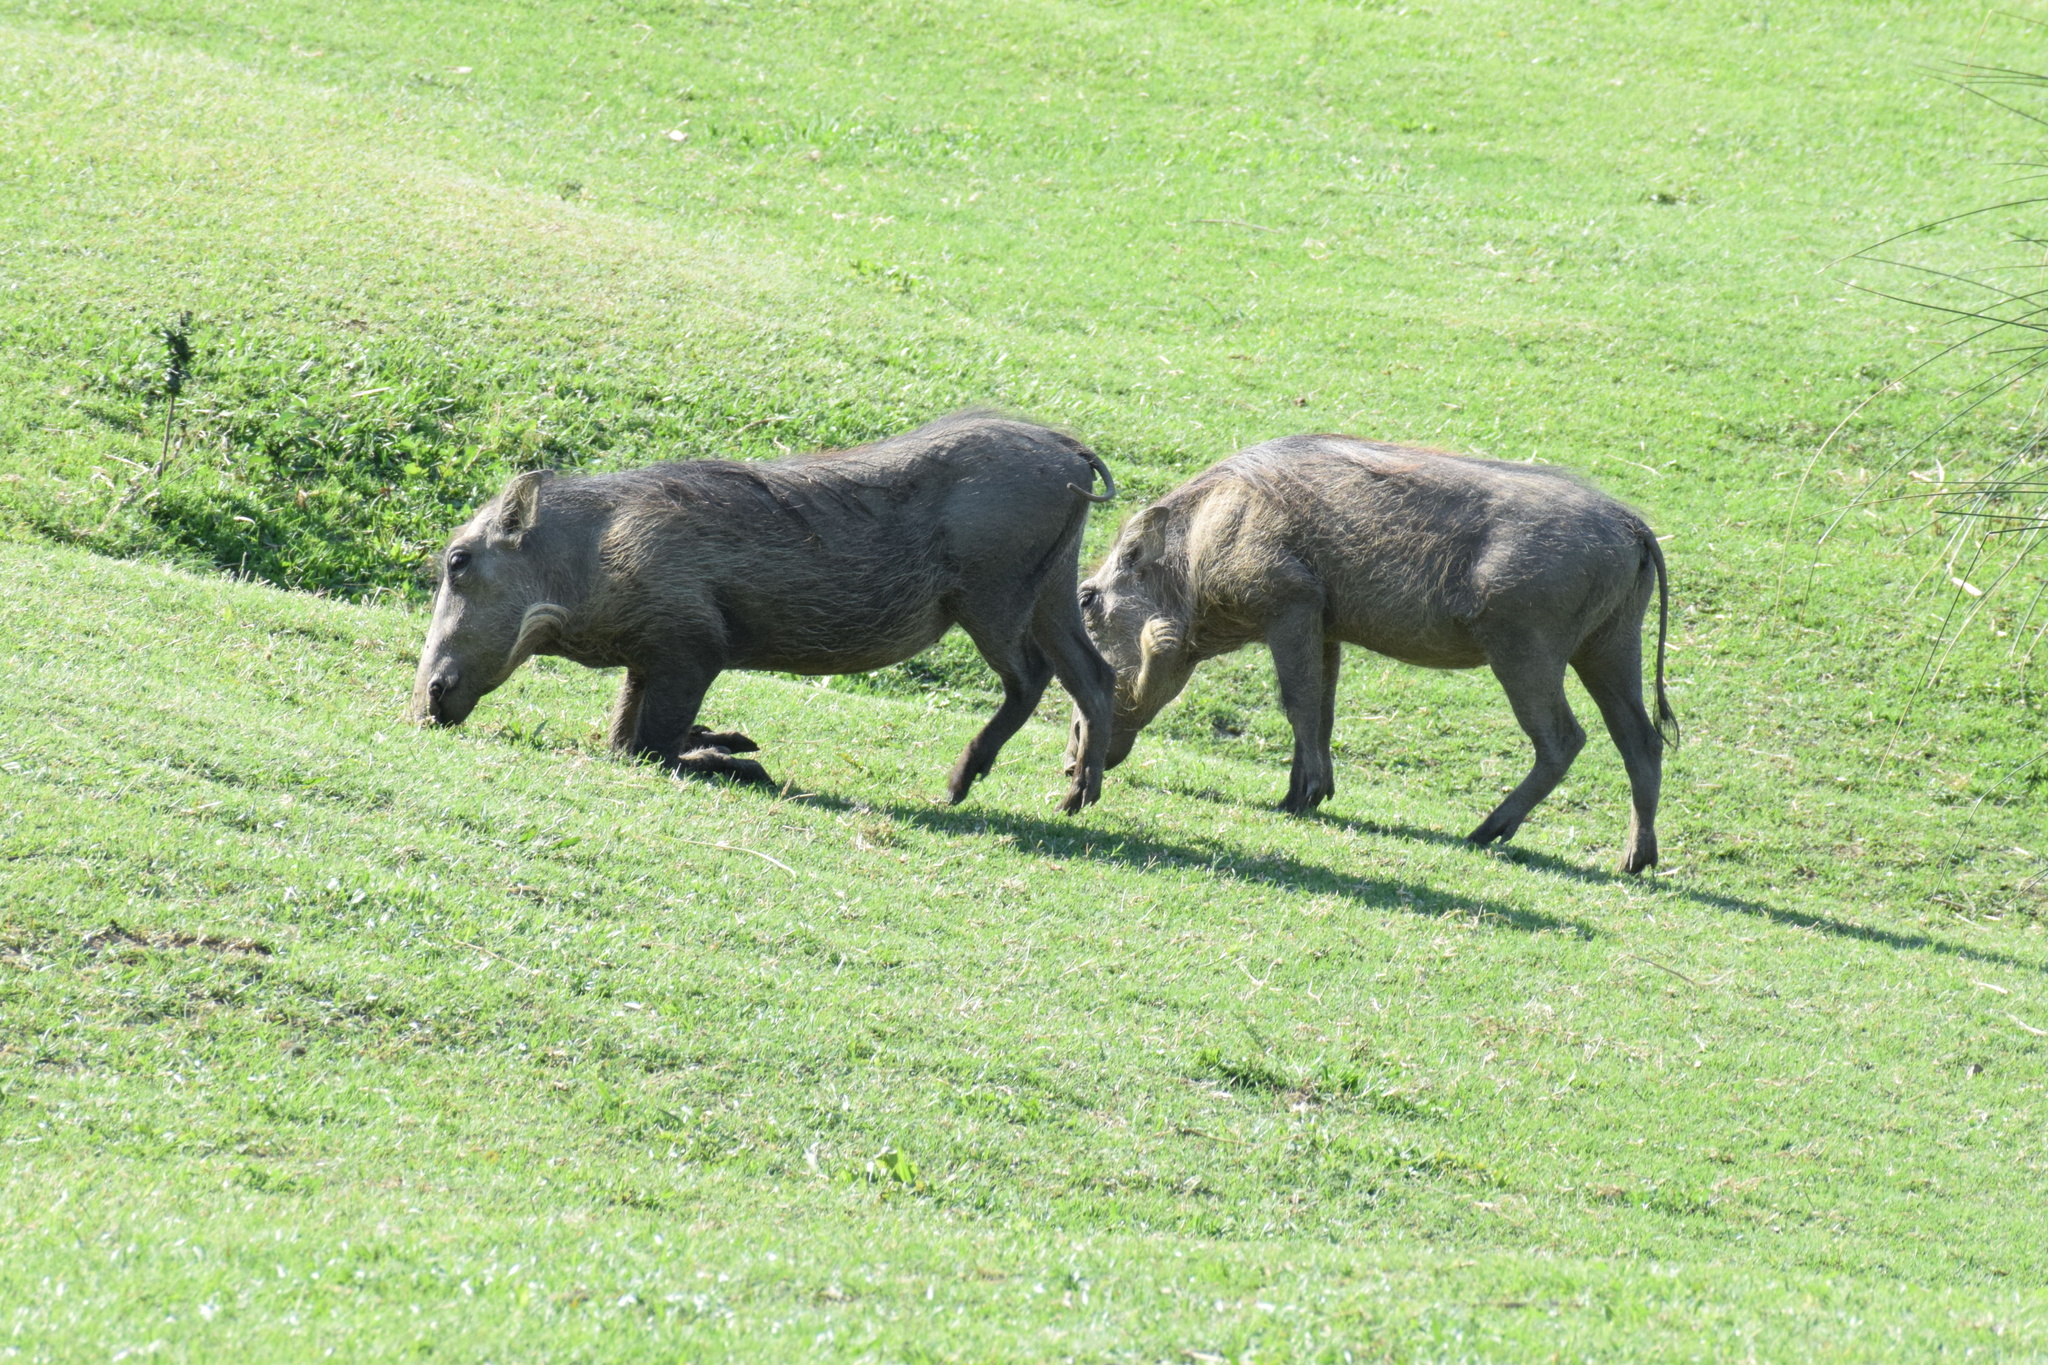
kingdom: Animalia
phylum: Chordata
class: Mammalia
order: Artiodactyla
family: Suidae
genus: Phacochoerus
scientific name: Phacochoerus africanus
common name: Common warthog
